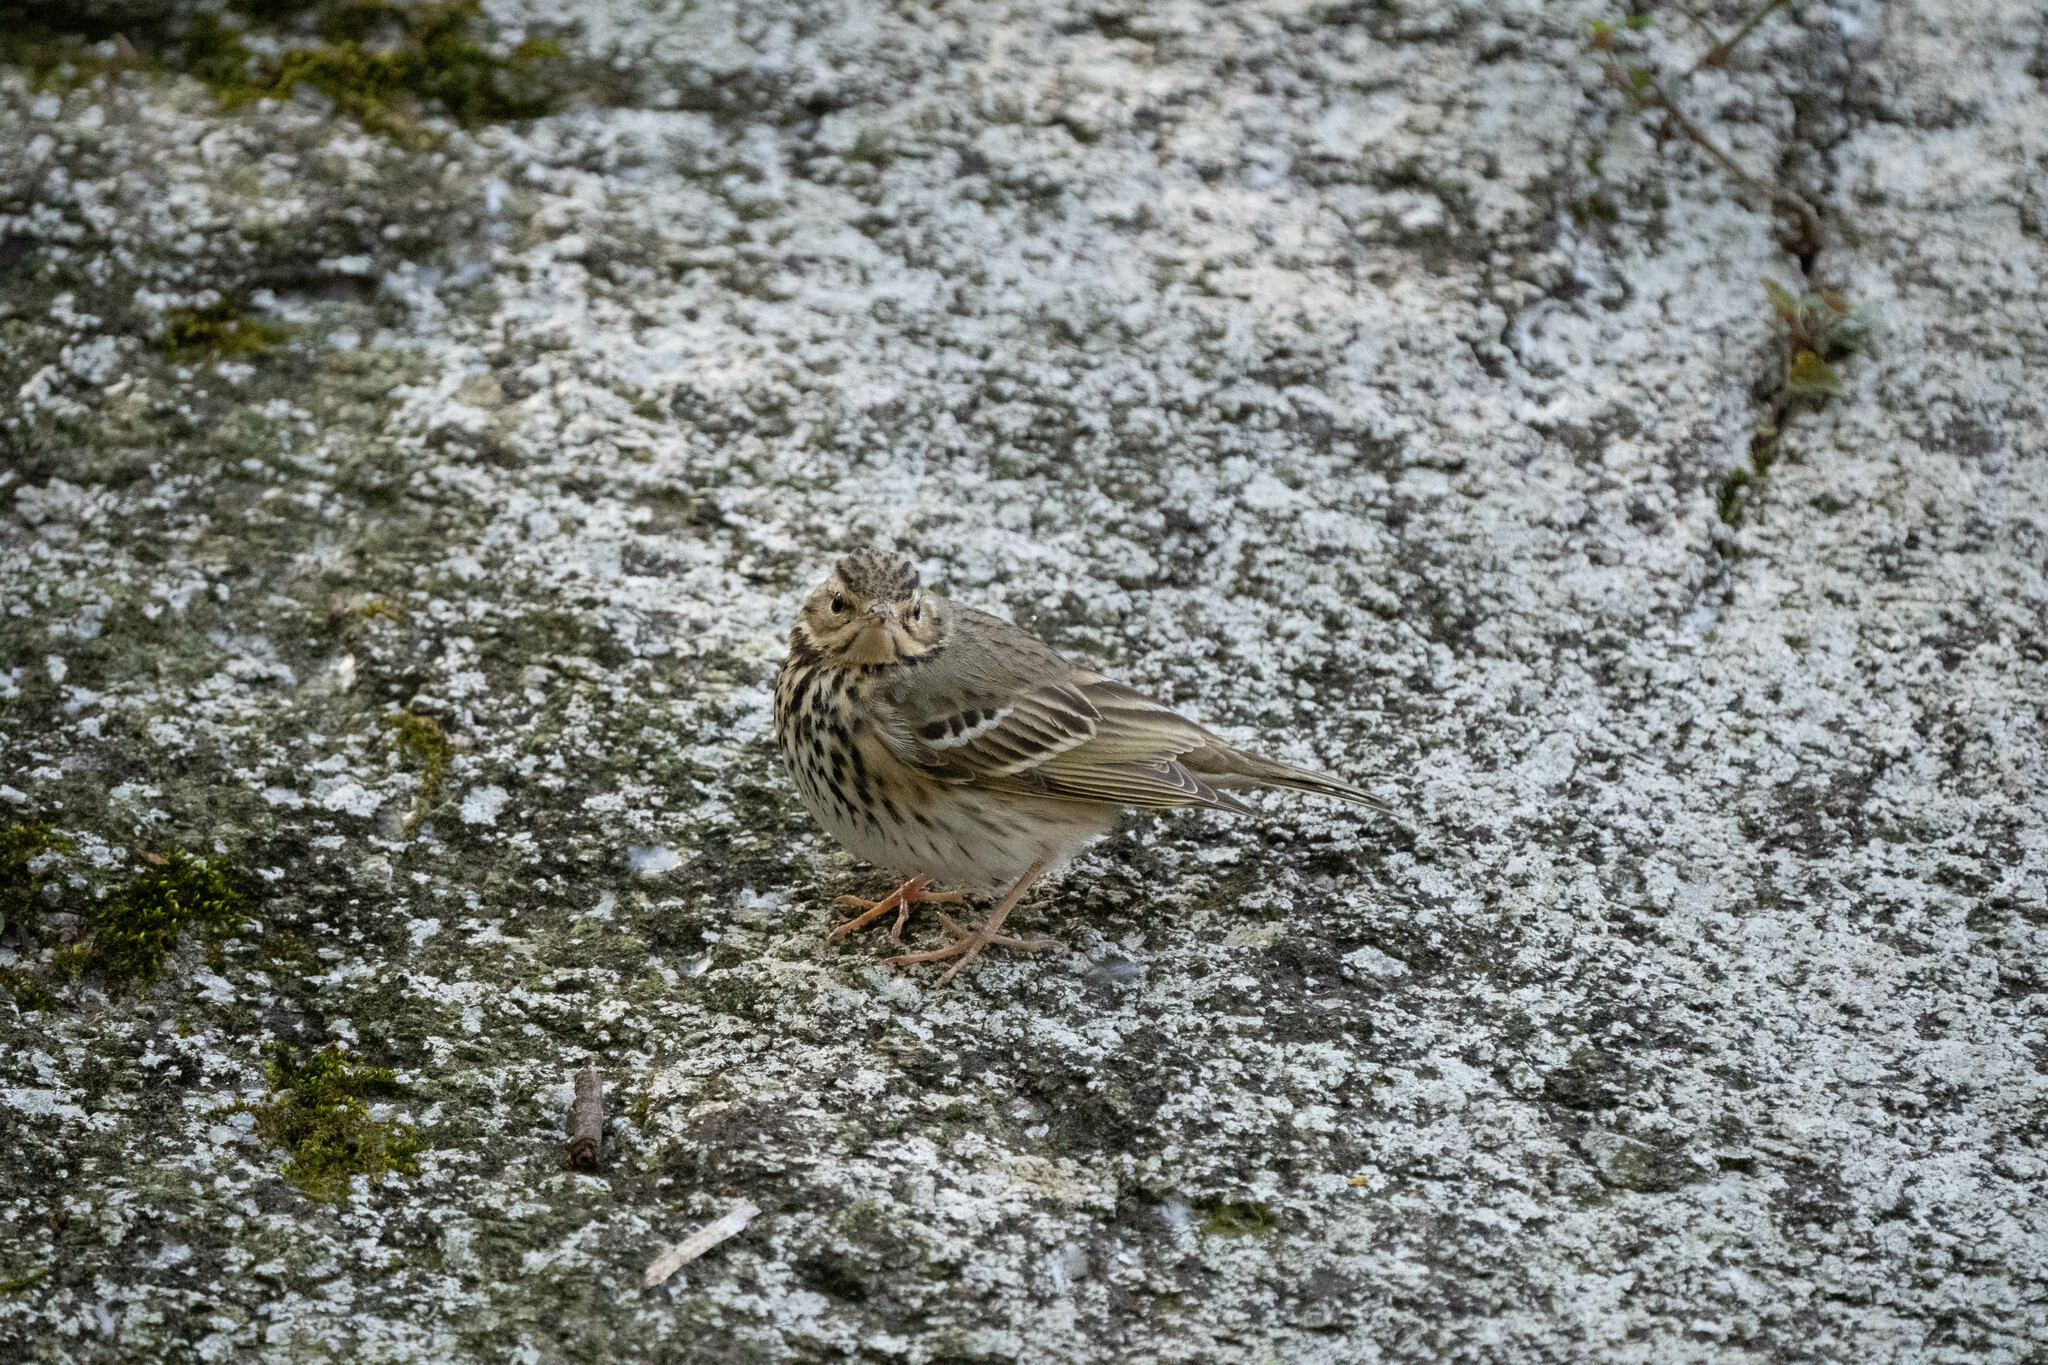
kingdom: Animalia
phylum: Chordata
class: Aves
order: Passeriformes
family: Motacillidae
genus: Anthus
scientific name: Anthus hodgsoni
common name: Olive-backed pipit
